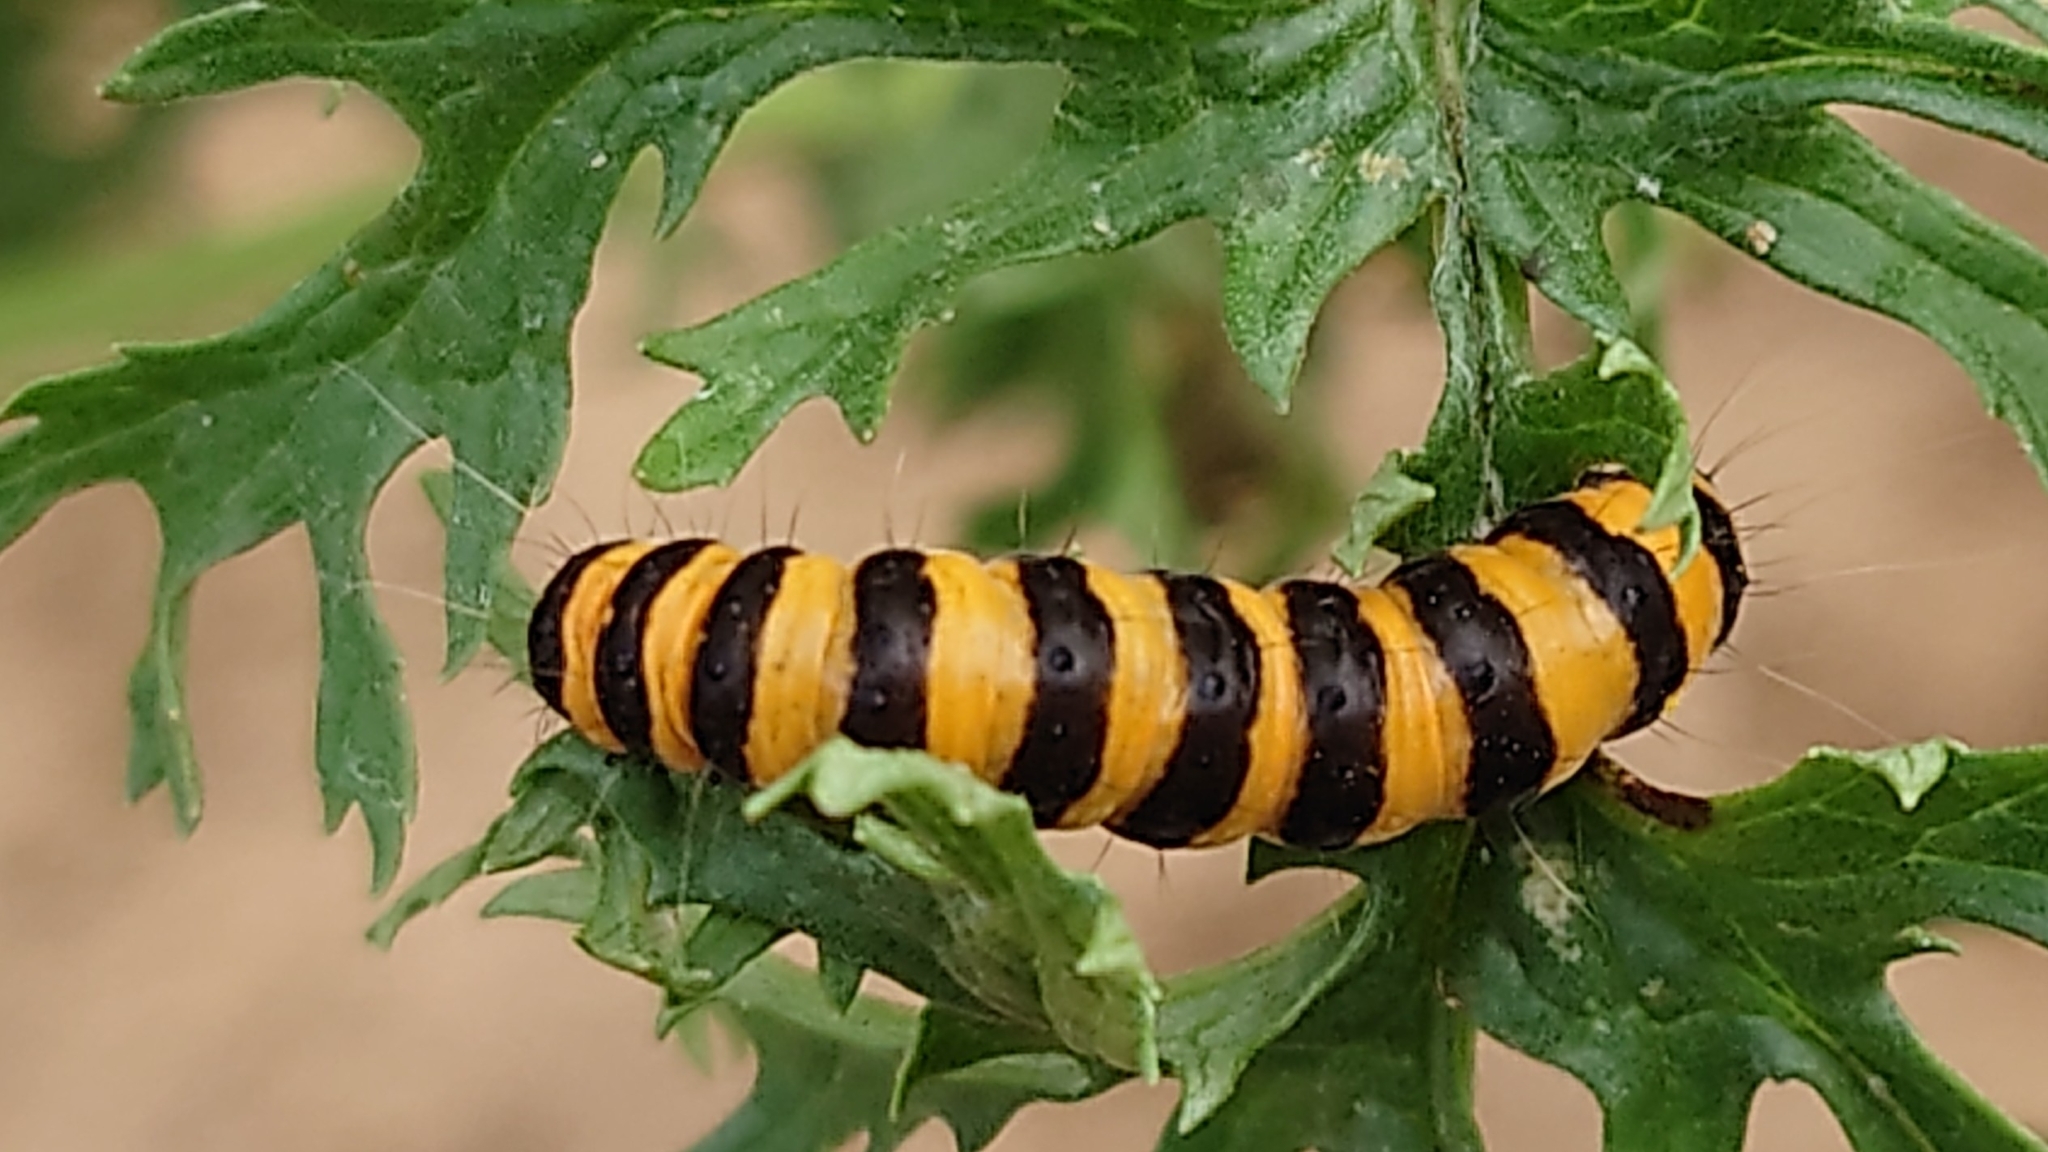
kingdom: Animalia
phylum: Arthropoda
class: Insecta
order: Lepidoptera
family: Erebidae
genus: Tyria
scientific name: Tyria jacobaeae
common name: Cinnabar
